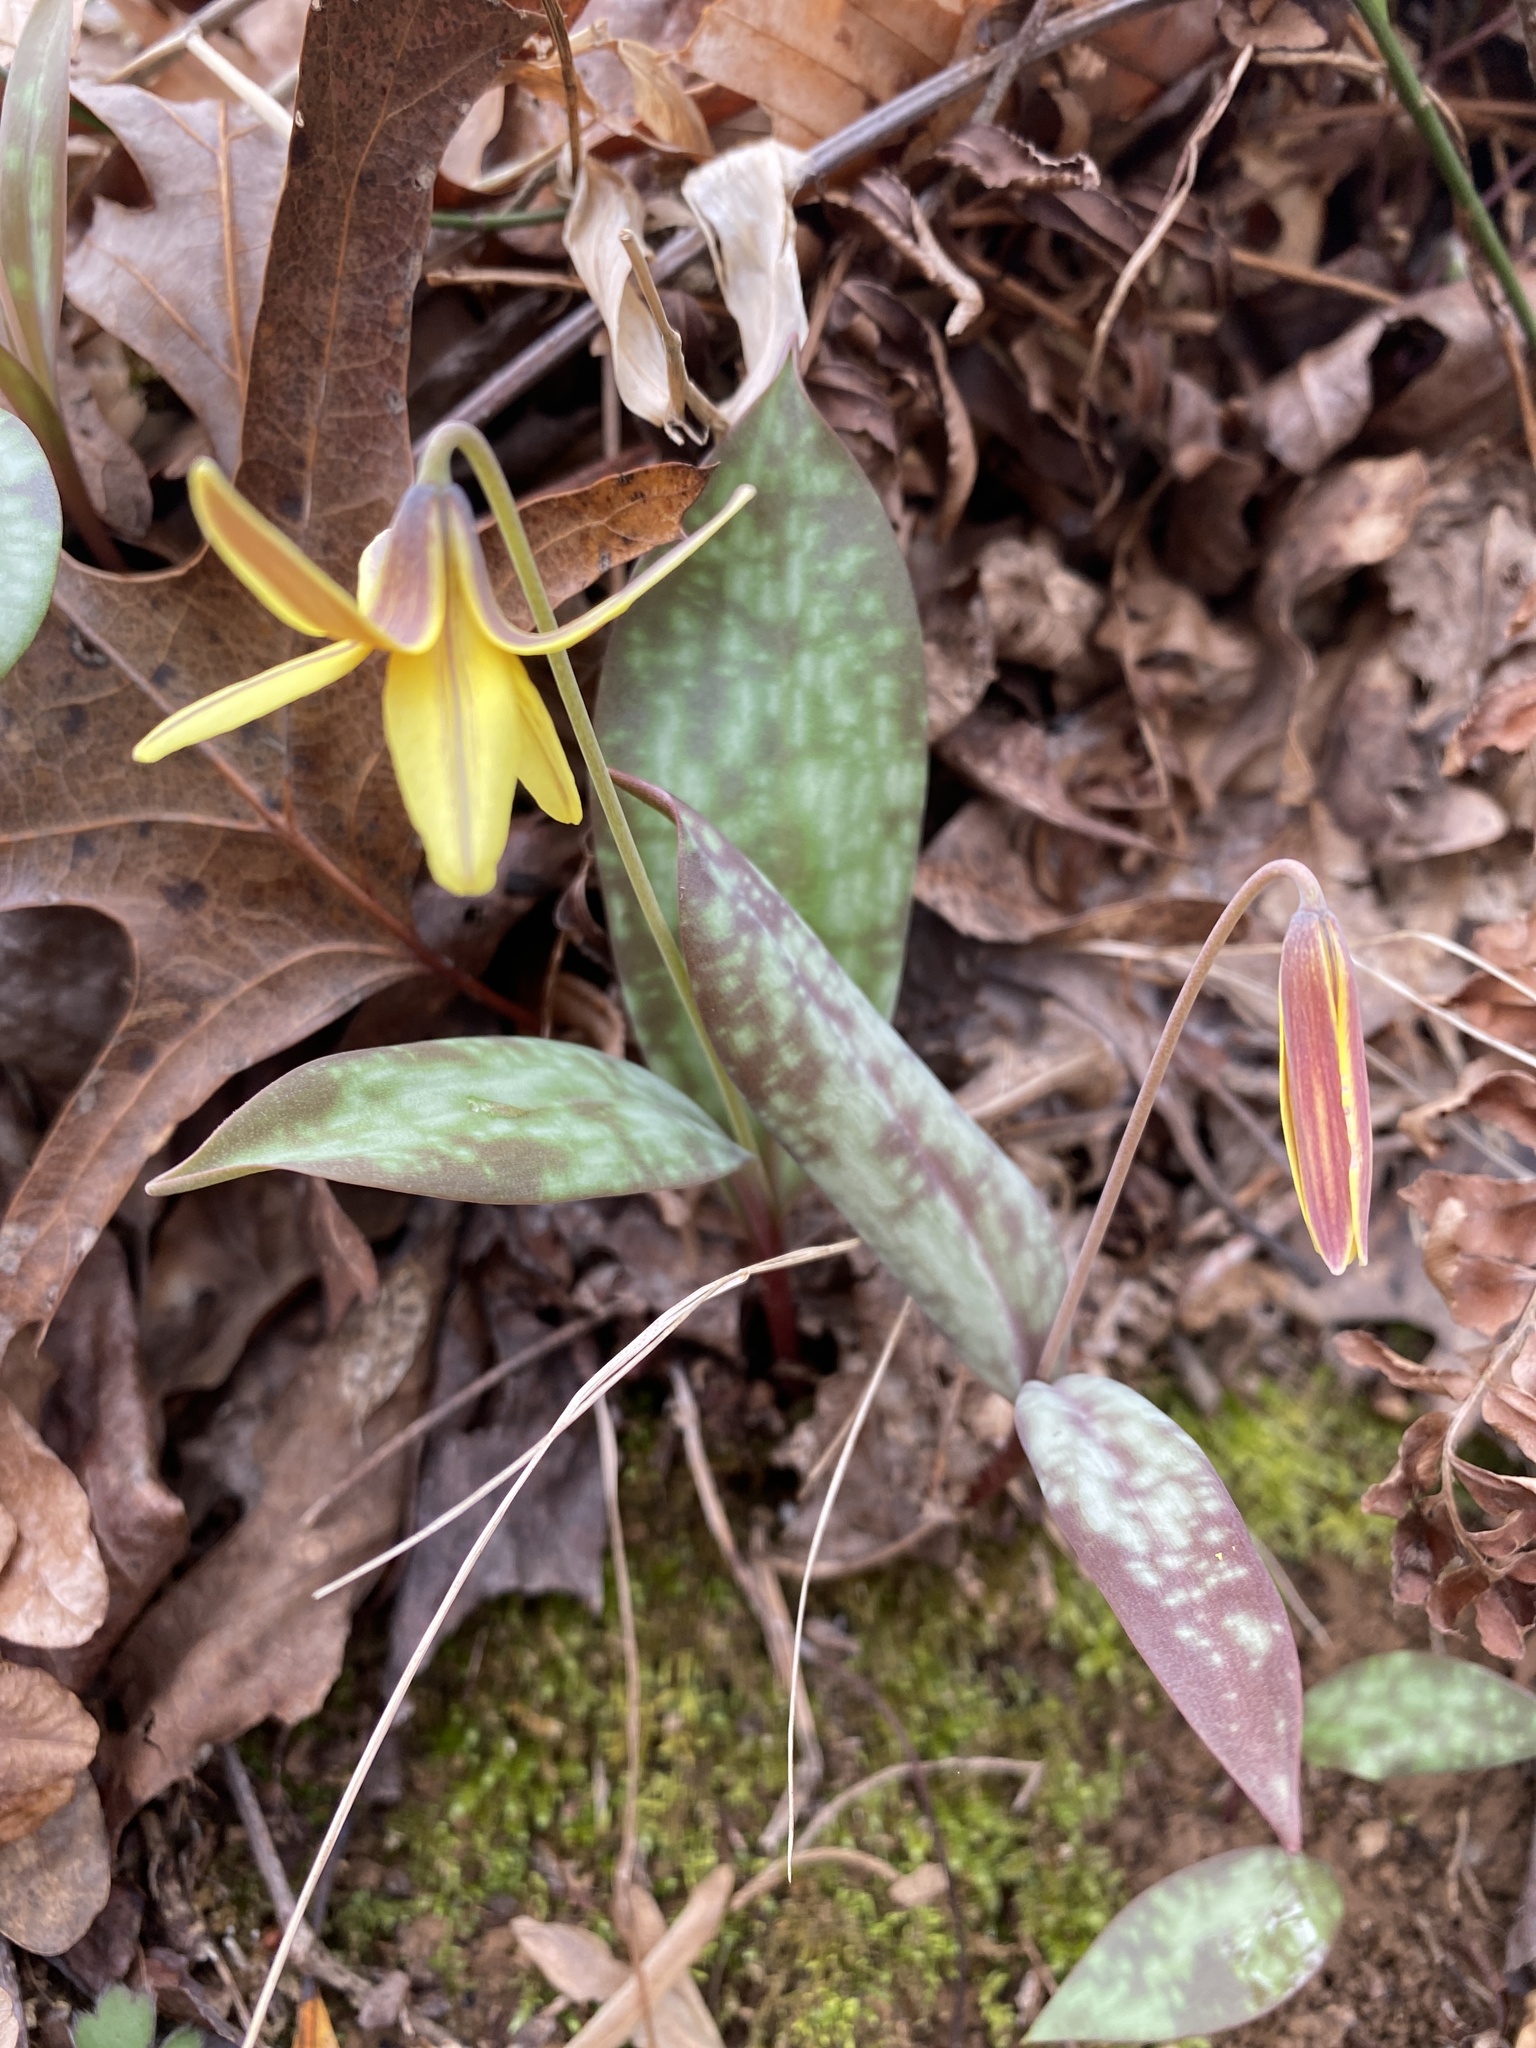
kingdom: Plantae
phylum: Tracheophyta
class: Liliopsida
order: Liliales
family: Liliaceae
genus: Erythronium
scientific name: Erythronium umbilicatum
